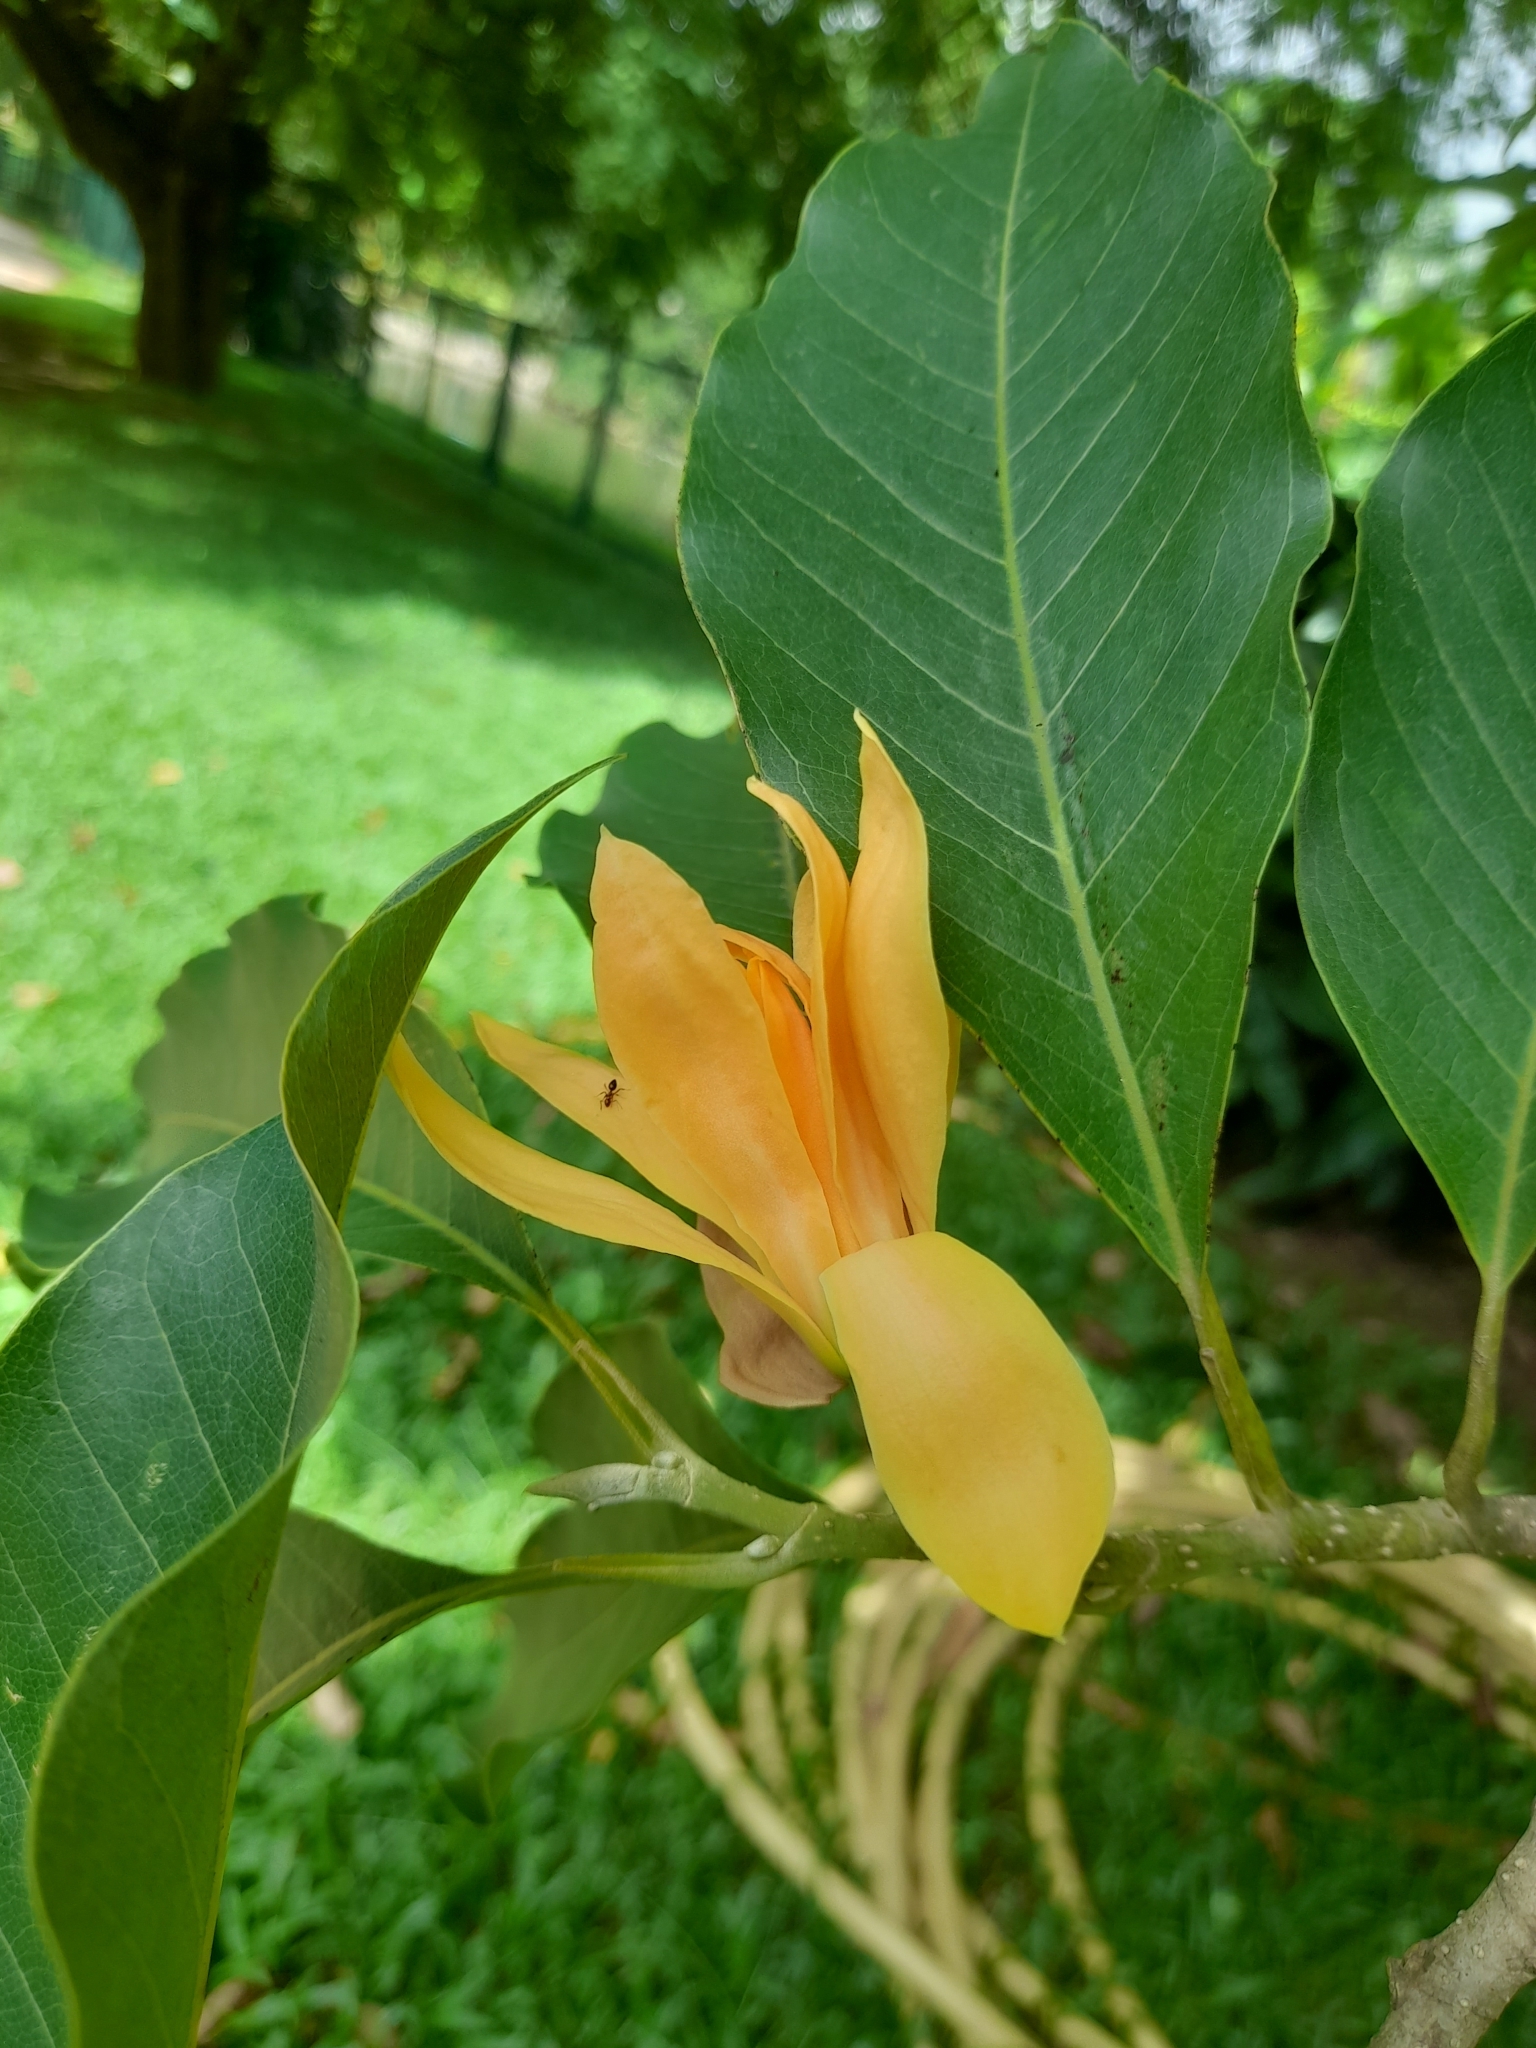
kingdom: Plantae
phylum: Tracheophyta
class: Magnoliopsida
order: Magnoliales
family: Magnoliaceae
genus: Magnolia
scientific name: Magnolia champaca
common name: Champak
